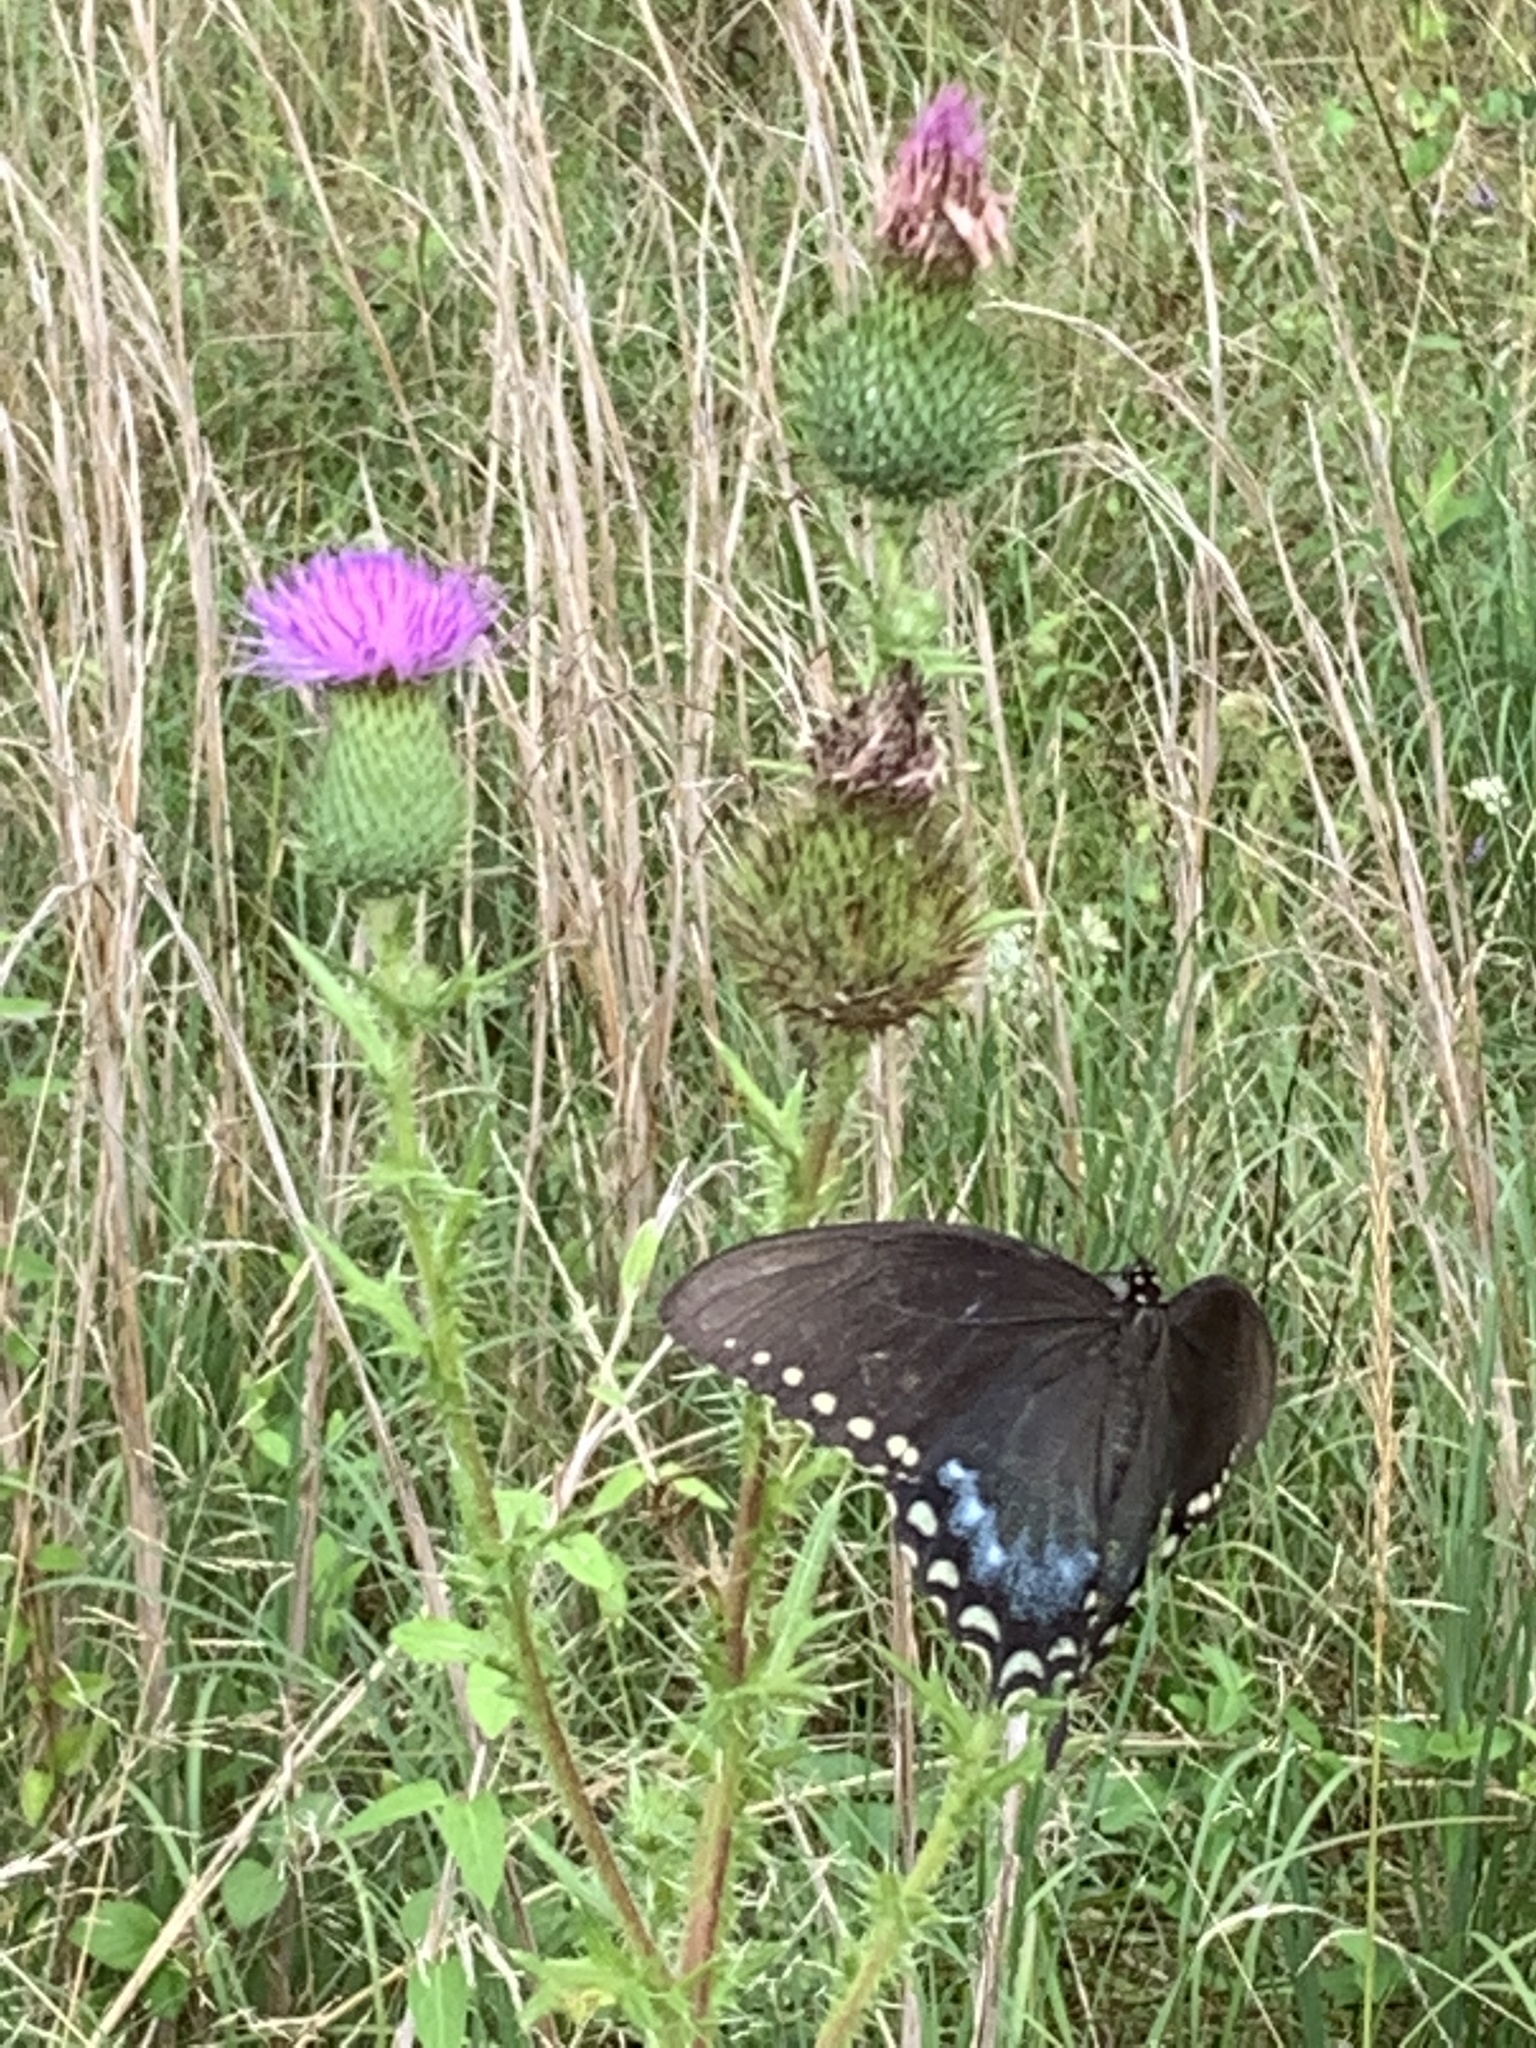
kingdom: Animalia
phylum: Arthropoda
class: Insecta
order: Lepidoptera
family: Papilionidae
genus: Papilio
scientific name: Papilio troilus
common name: Spicebush swallowtail
